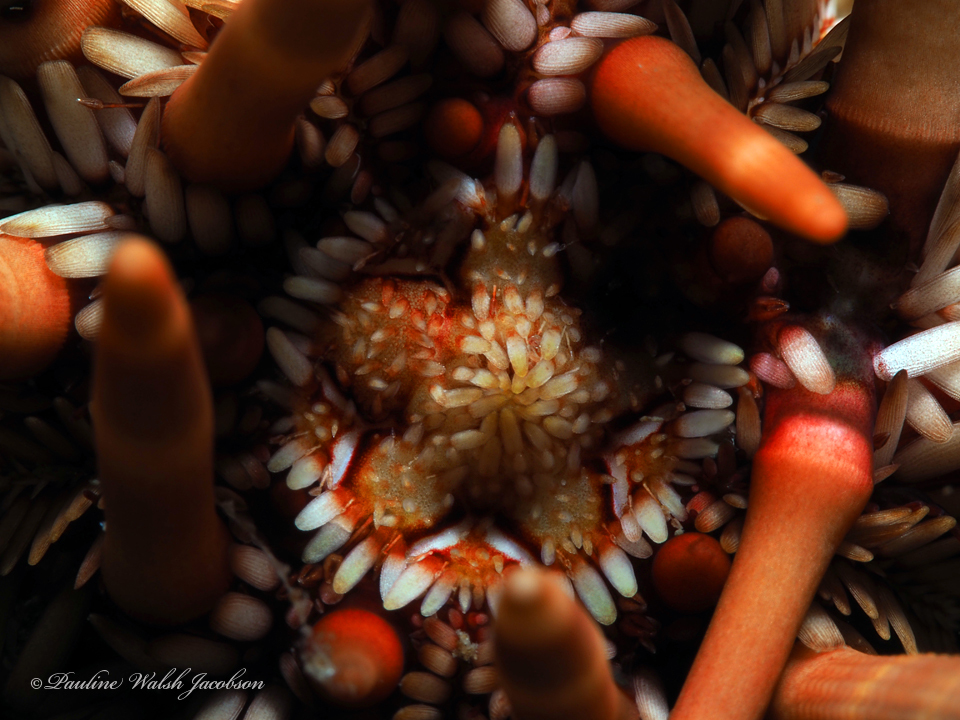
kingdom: Animalia
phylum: Echinodermata
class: Echinoidea
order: Cidaroida
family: Cidaridae
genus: Eucidaris
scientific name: Eucidaris tribuloides
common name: Slate pencil urchin
